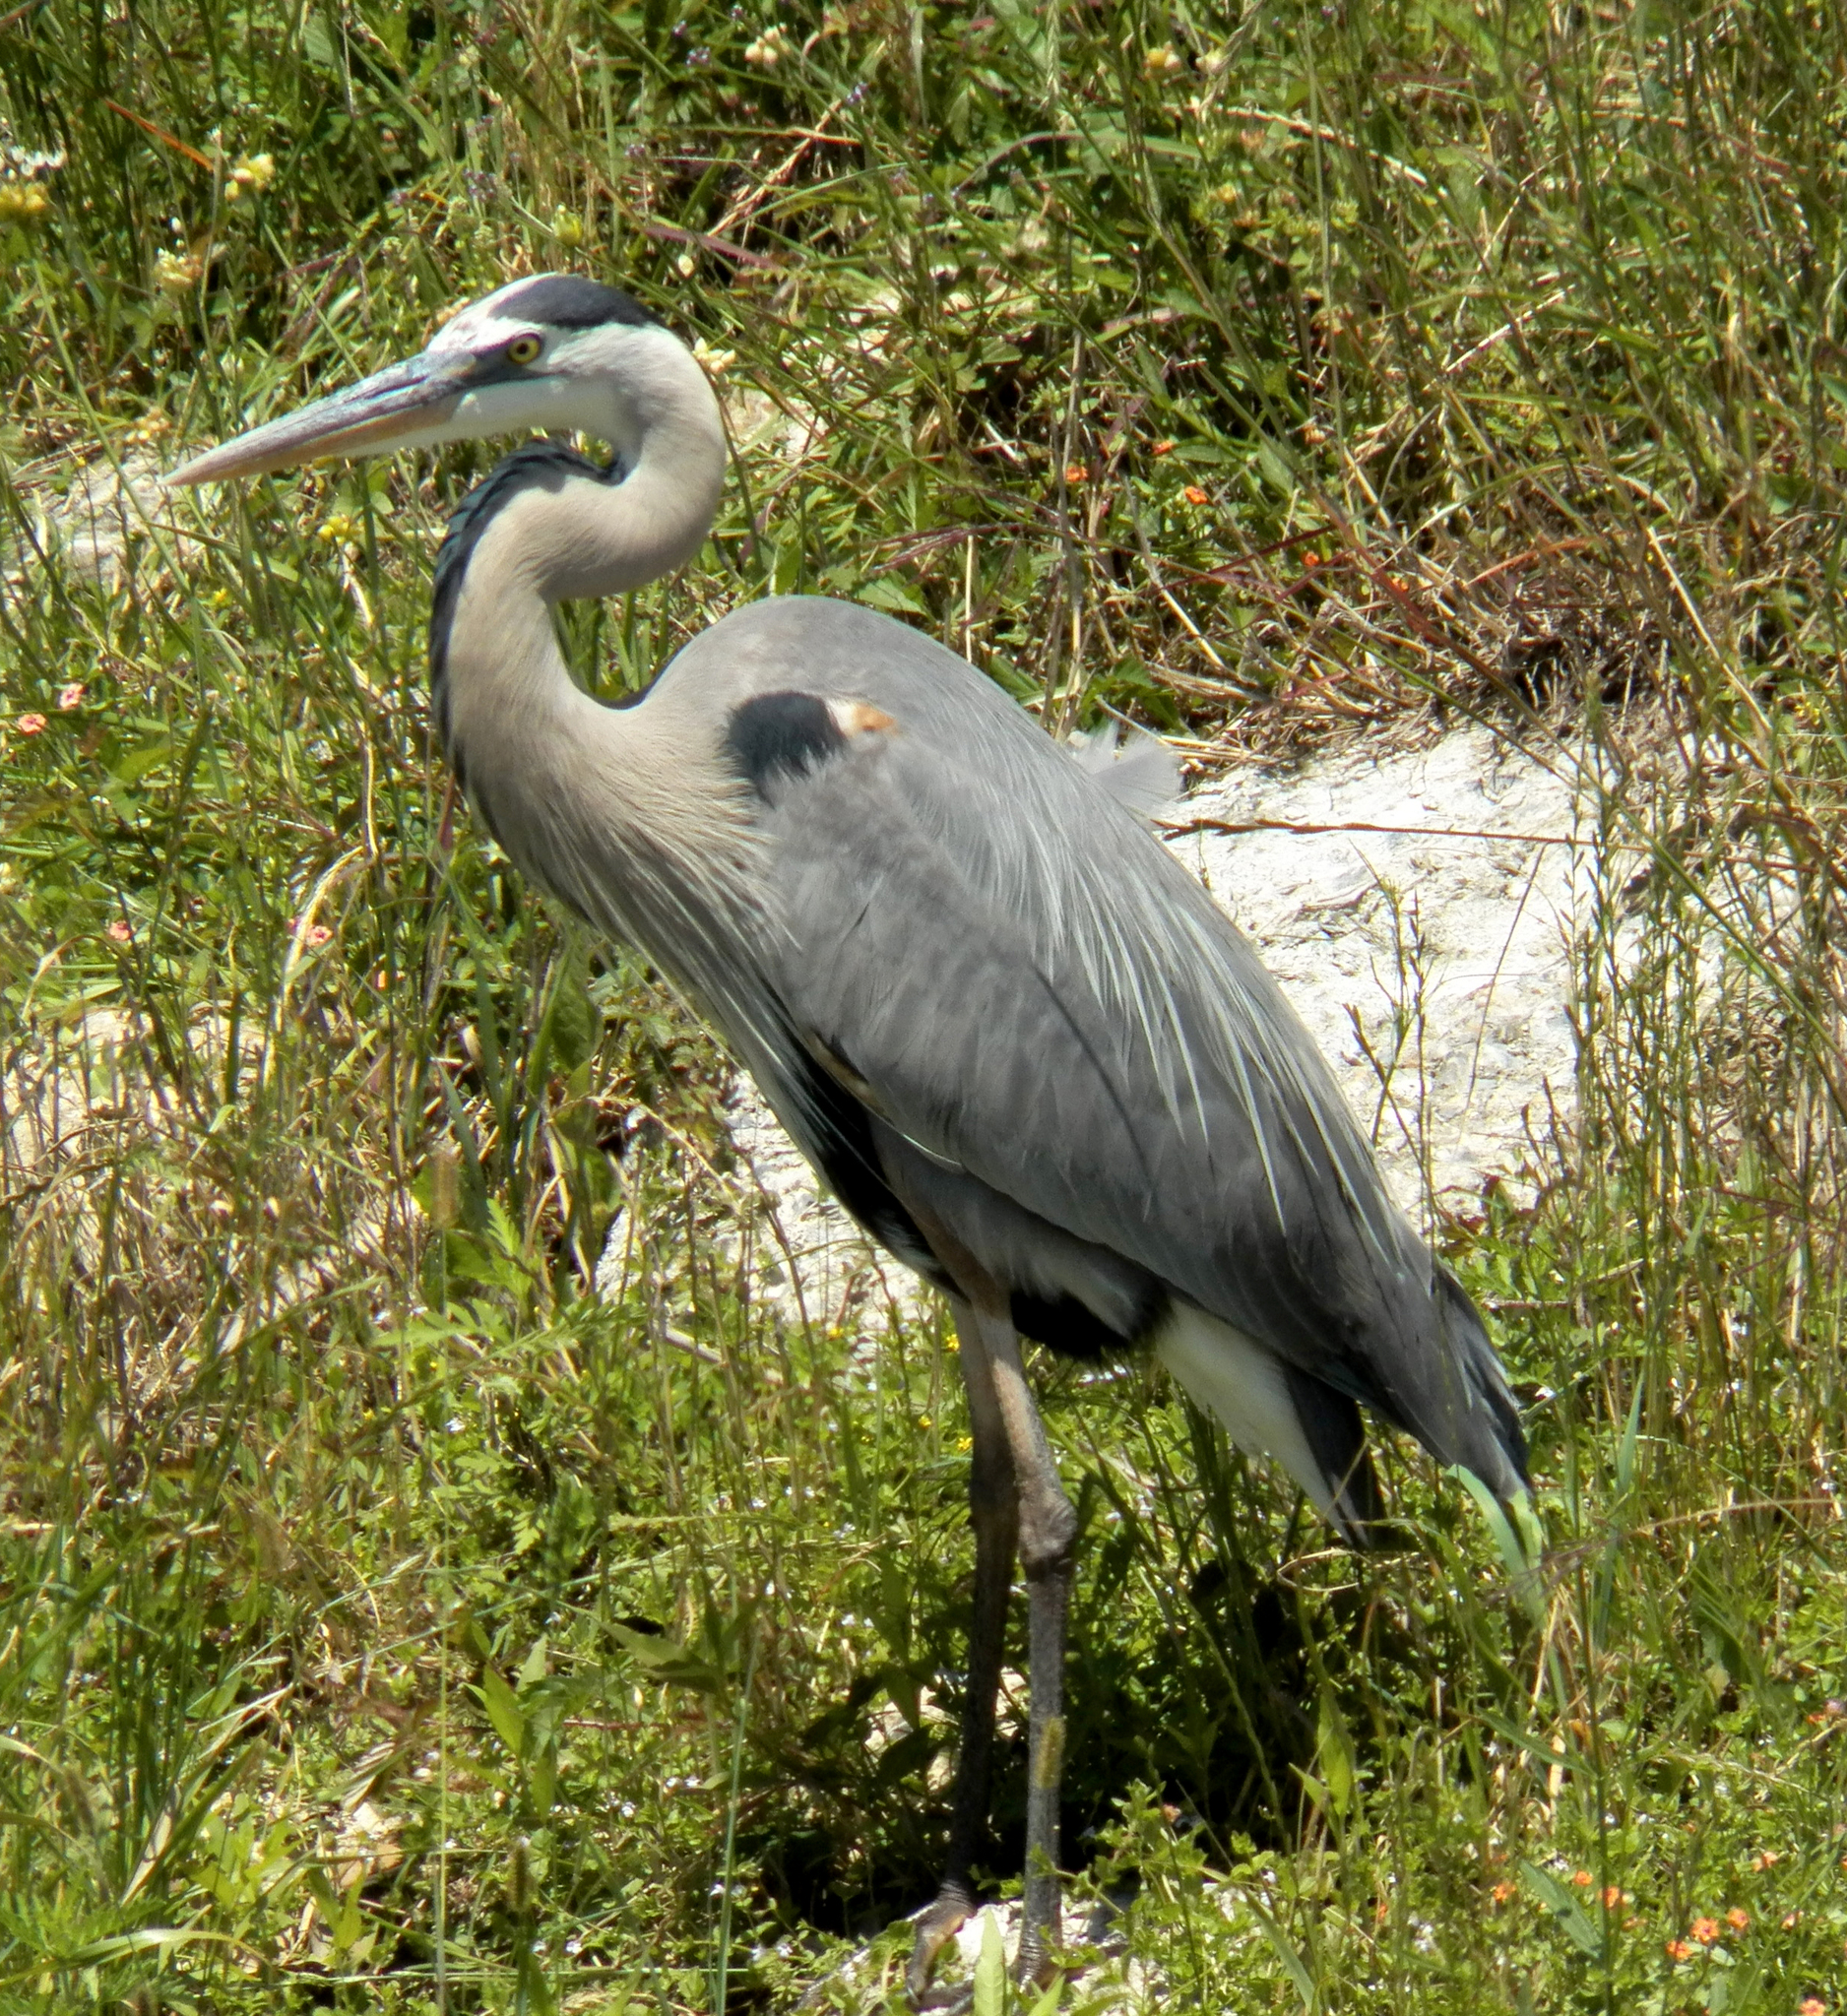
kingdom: Animalia
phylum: Chordata
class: Aves
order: Pelecaniformes
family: Ardeidae
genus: Ardea
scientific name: Ardea herodias
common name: Great blue heron
